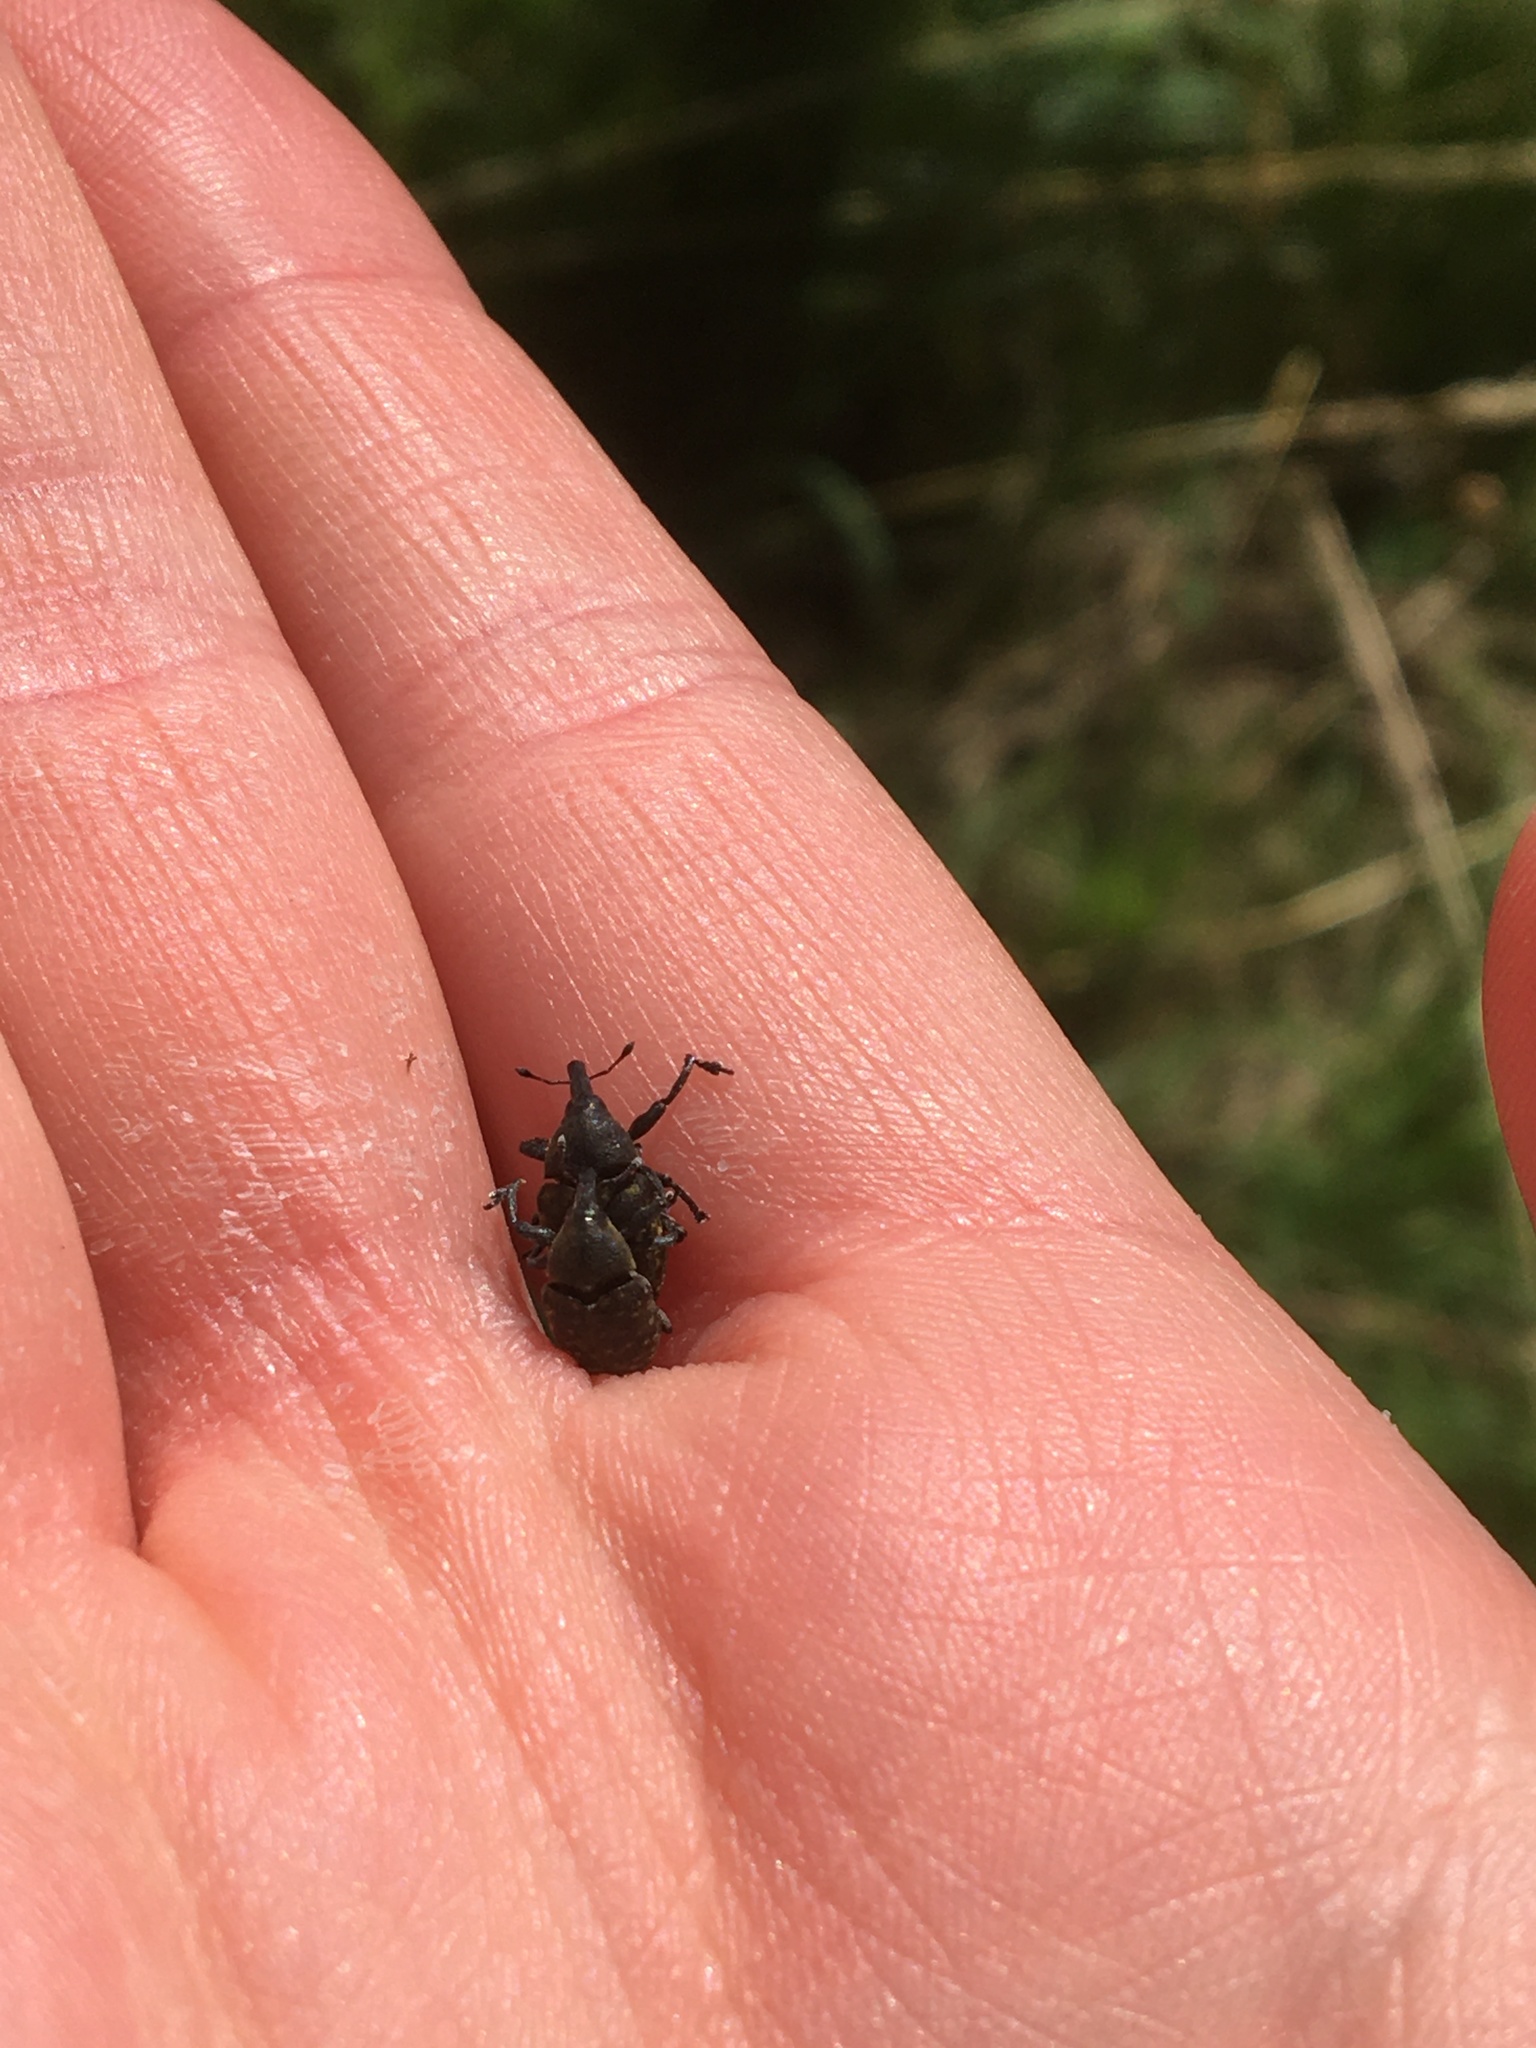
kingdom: Animalia
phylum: Arthropoda
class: Insecta
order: Coleoptera
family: Curculionidae
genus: Larinus
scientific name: Larinus turbinatus
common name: Weevil
